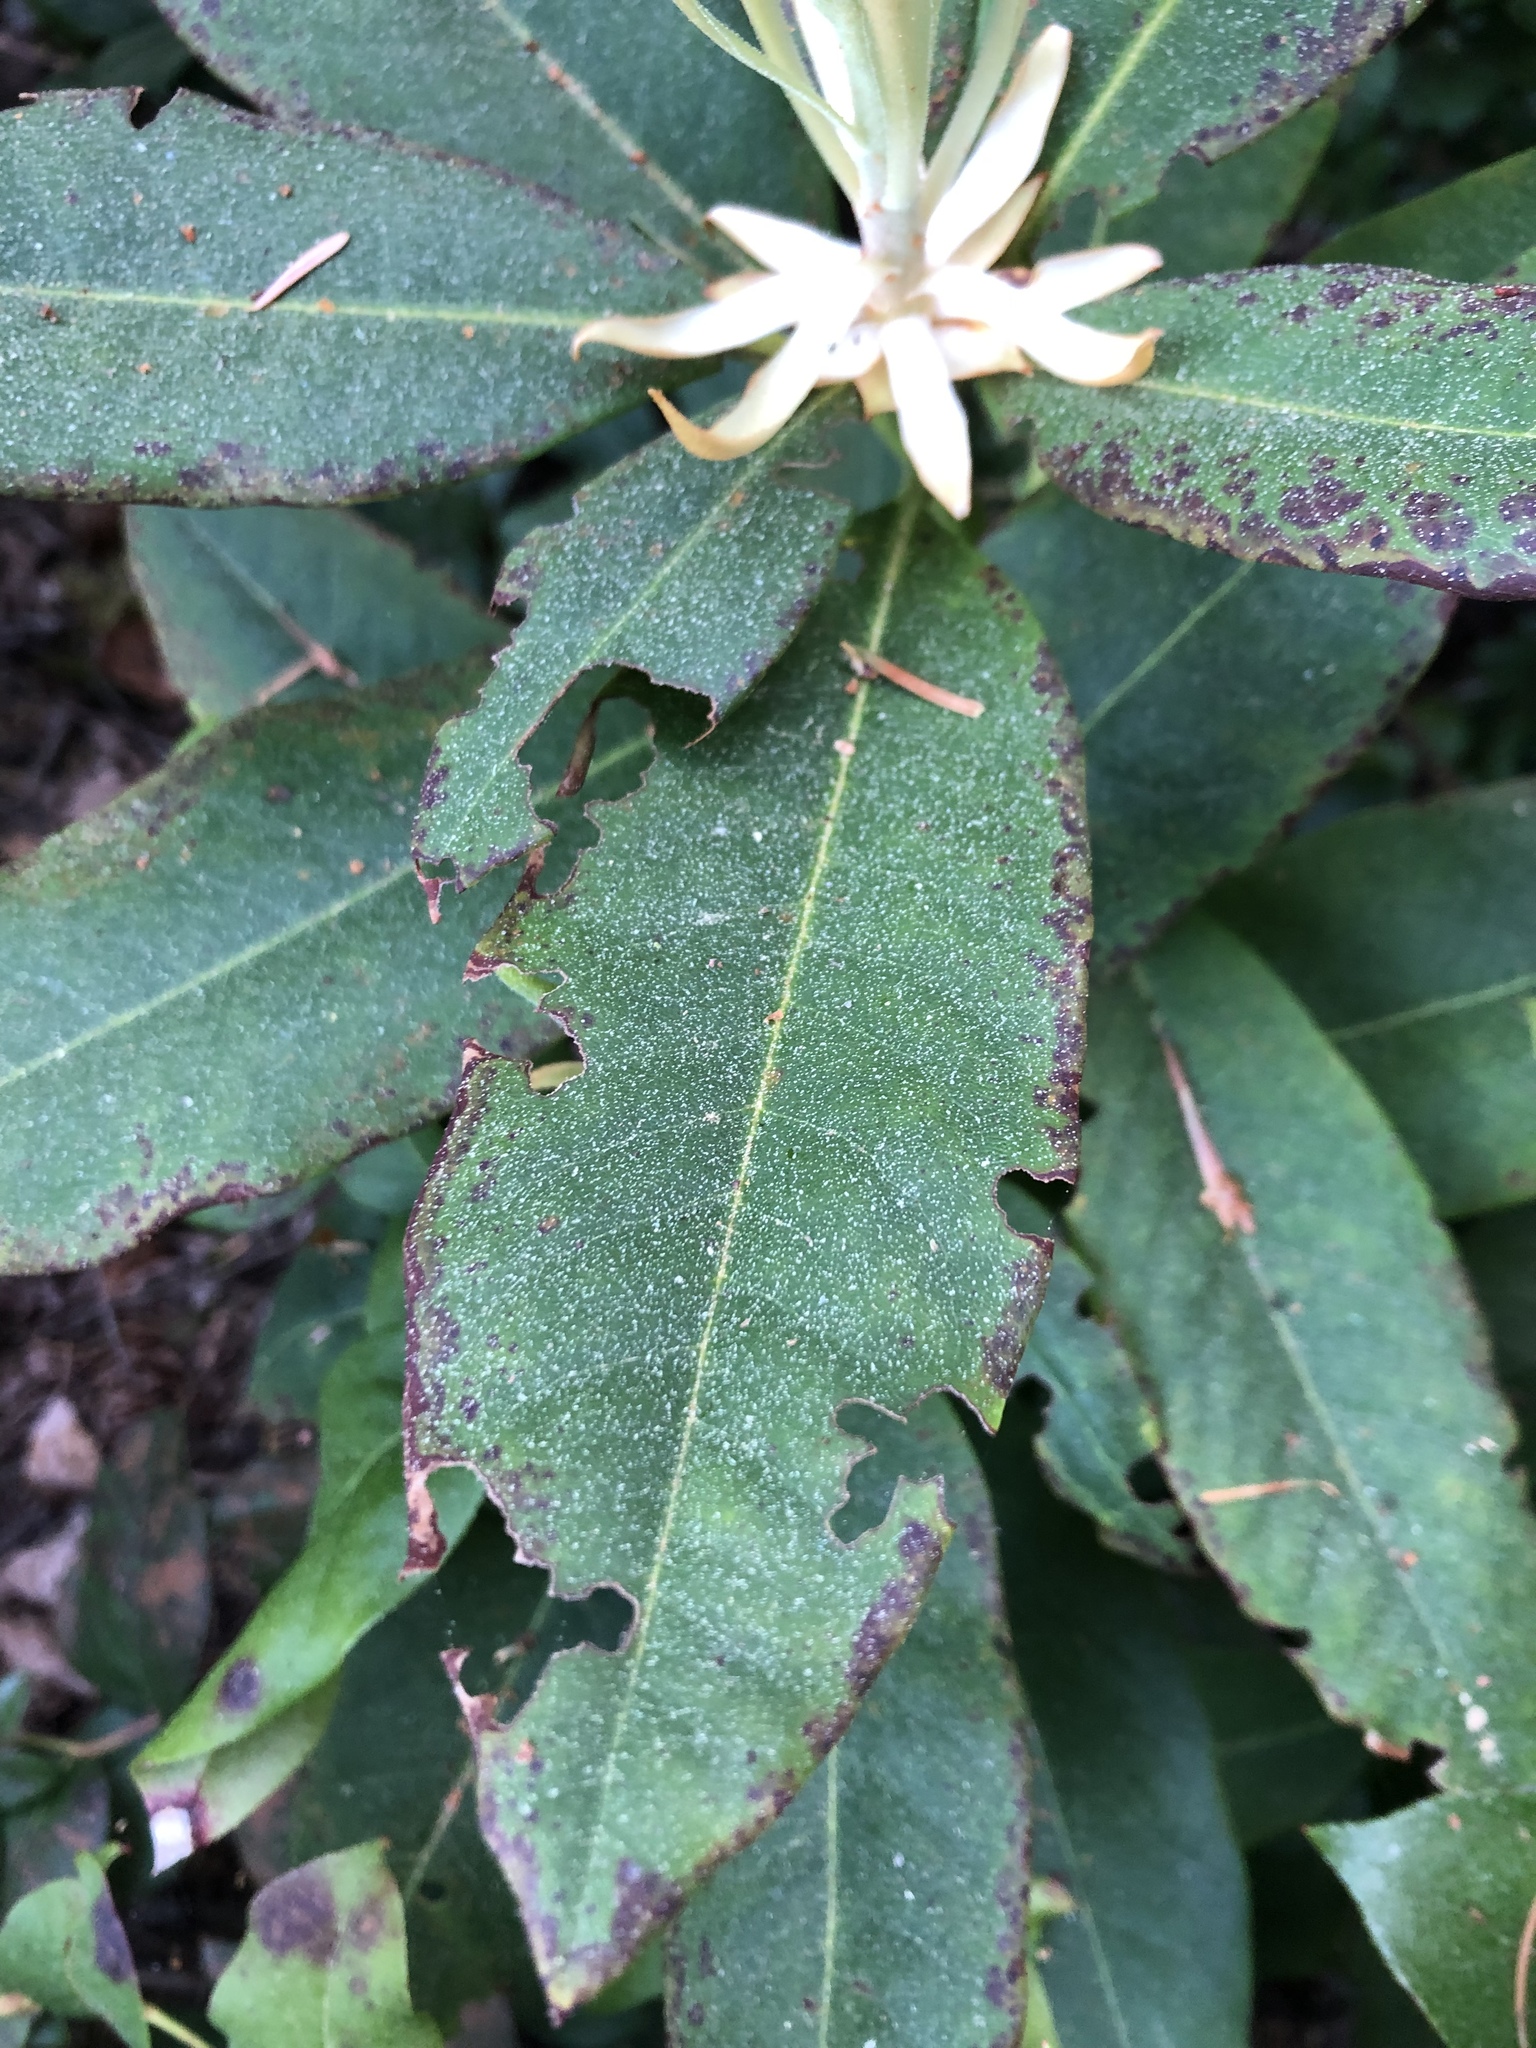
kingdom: Plantae
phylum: Tracheophyta
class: Magnoliopsida
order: Ericales
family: Ericaceae
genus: Rhododendron
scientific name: Rhododendron macrophyllum
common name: California rose bay
